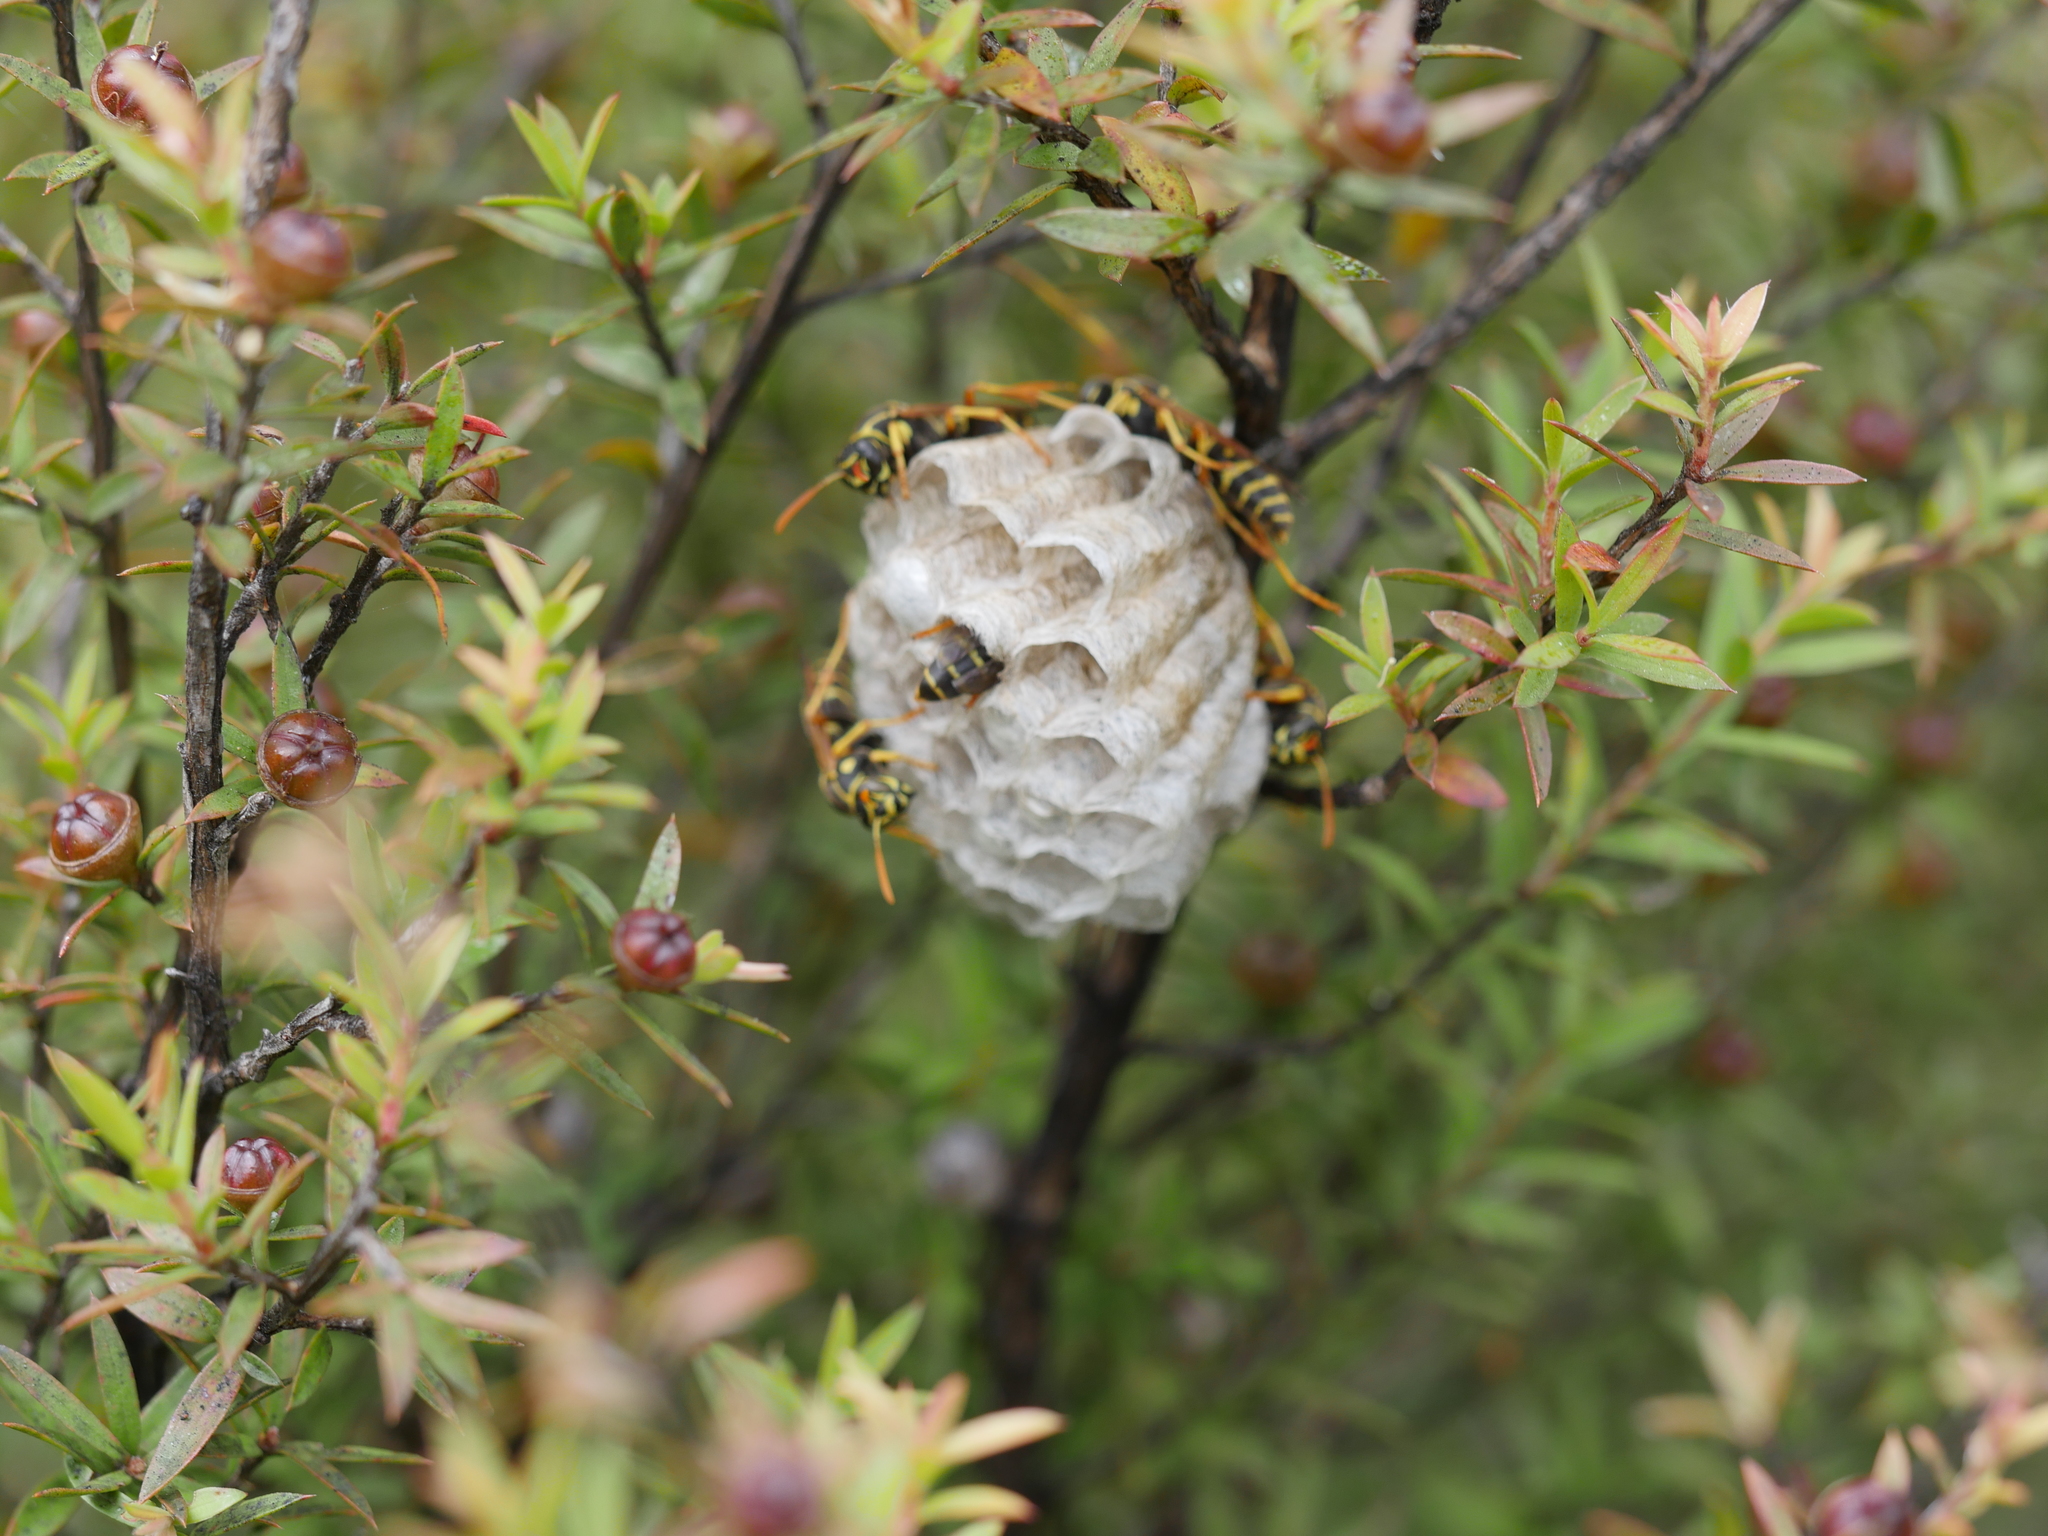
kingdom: Animalia
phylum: Arthropoda
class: Insecta
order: Hymenoptera
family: Eumenidae
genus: Polistes
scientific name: Polistes chinensis
